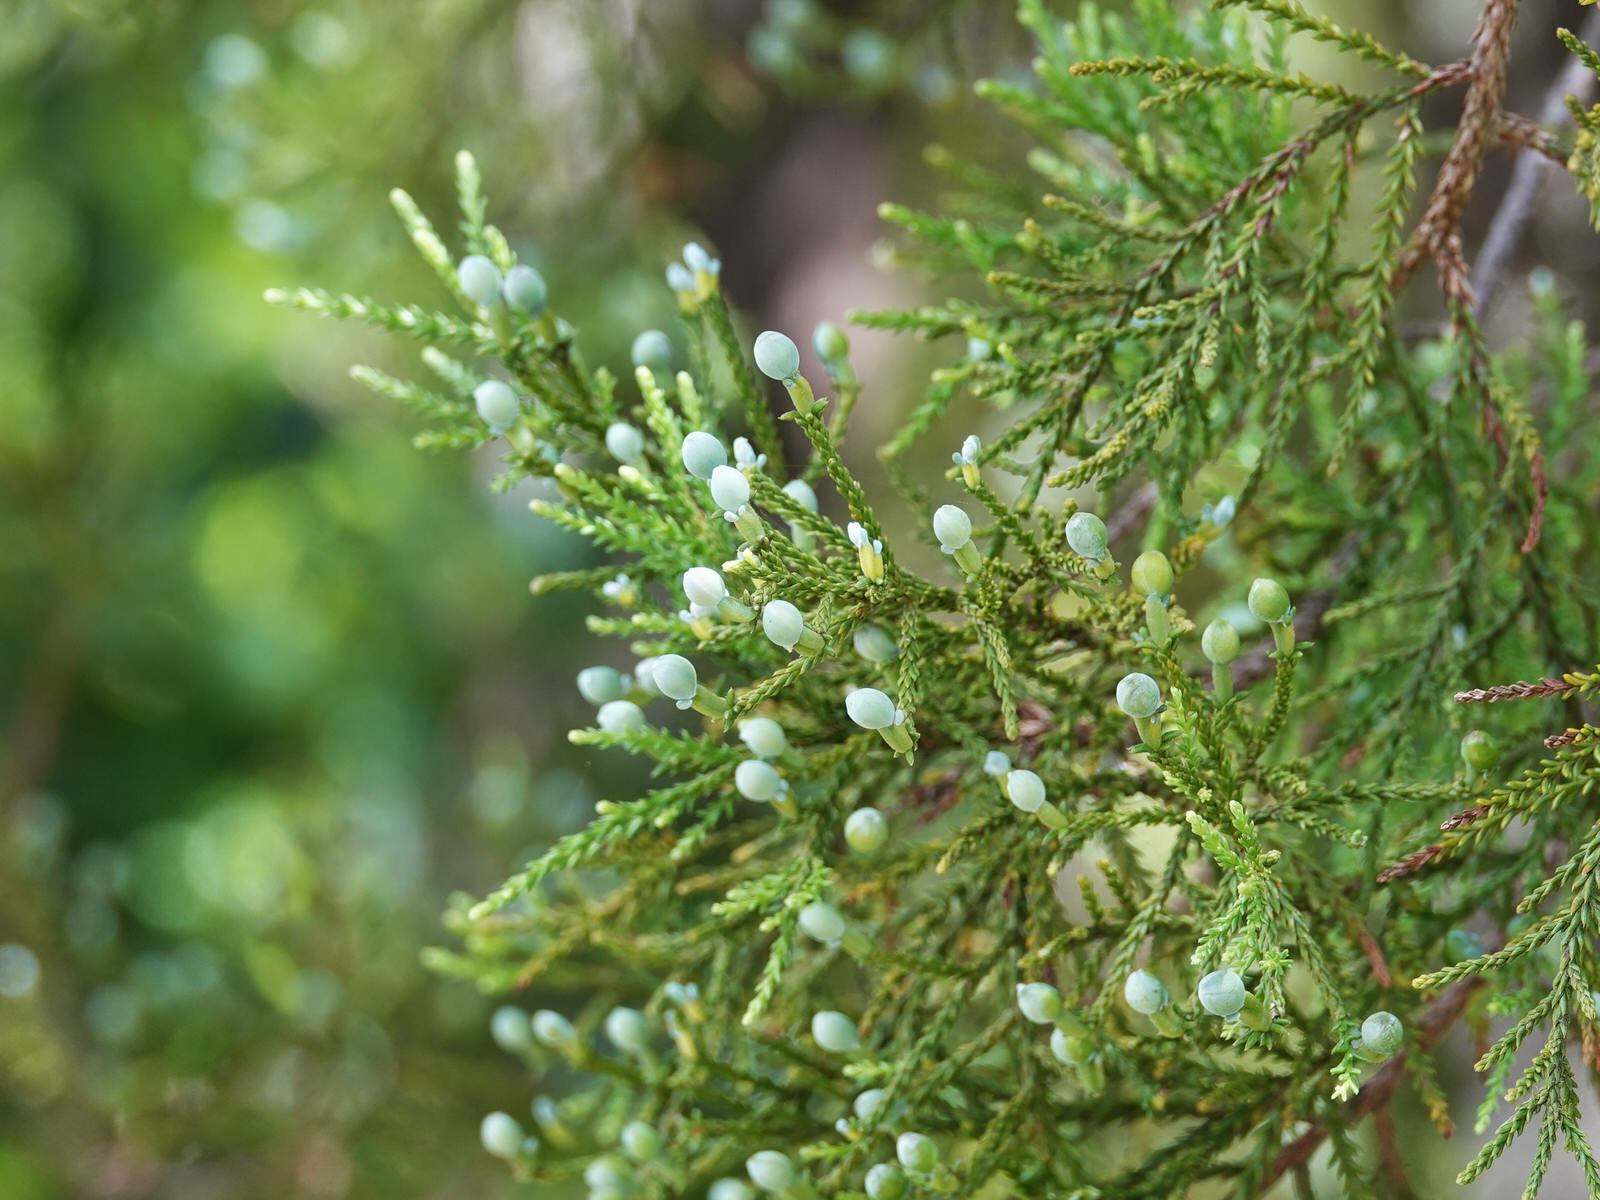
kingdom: Plantae
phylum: Tracheophyta
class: Pinopsida
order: Pinales
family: Podocarpaceae
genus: Dacrycarpus
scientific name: Dacrycarpus dacrydioides
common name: White pine
